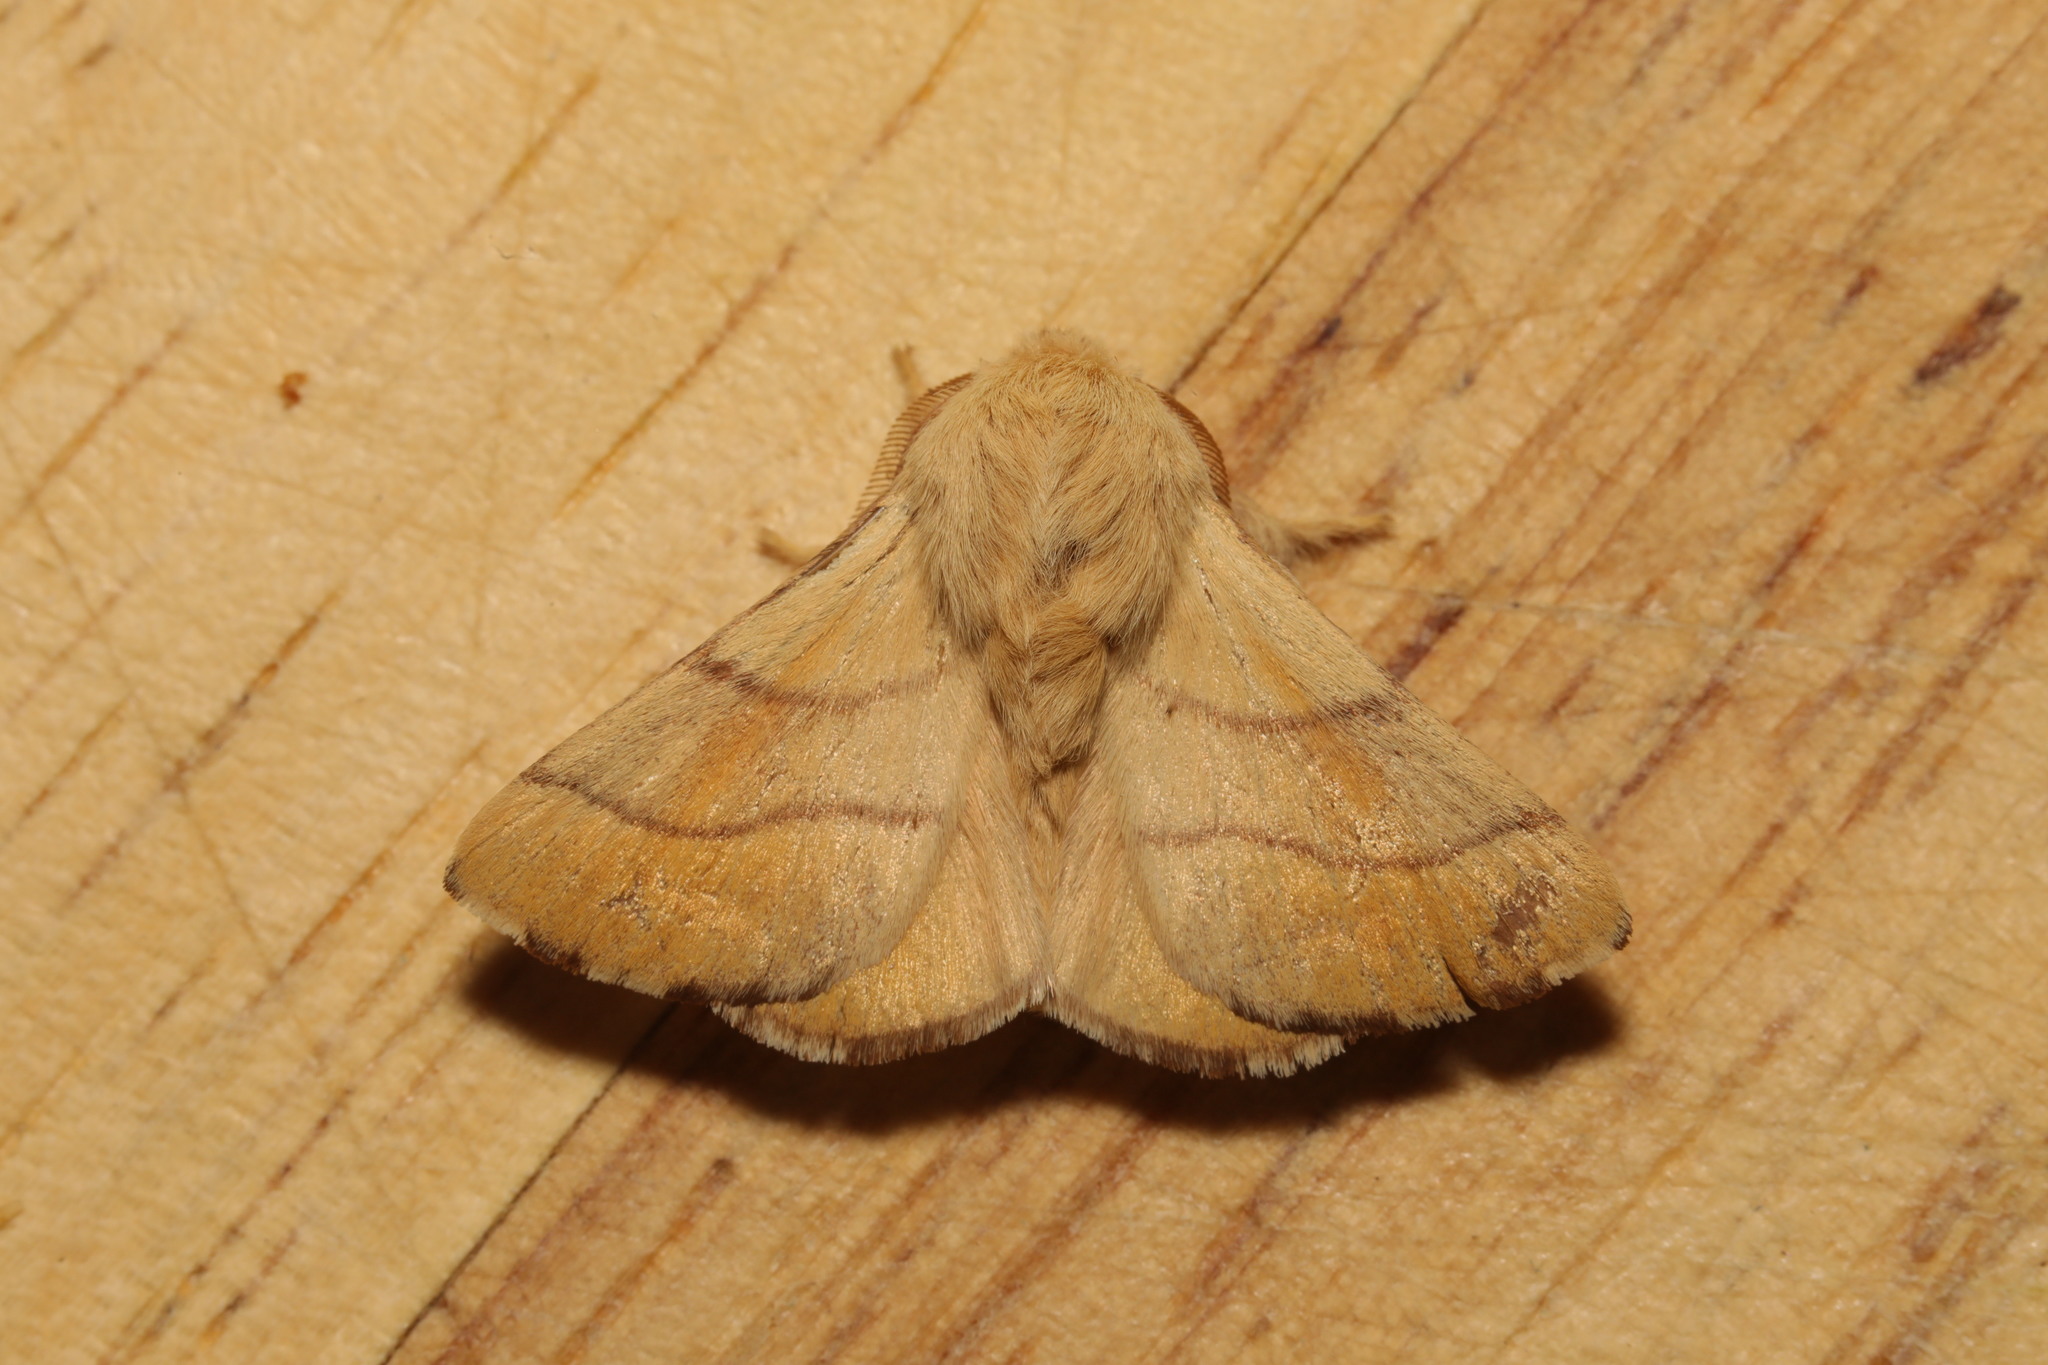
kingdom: Animalia
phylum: Arthropoda
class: Insecta
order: Lepidoptera
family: Lasiocampidae
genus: Malacosoma
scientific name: Malacosoma neustria
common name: The lackey
